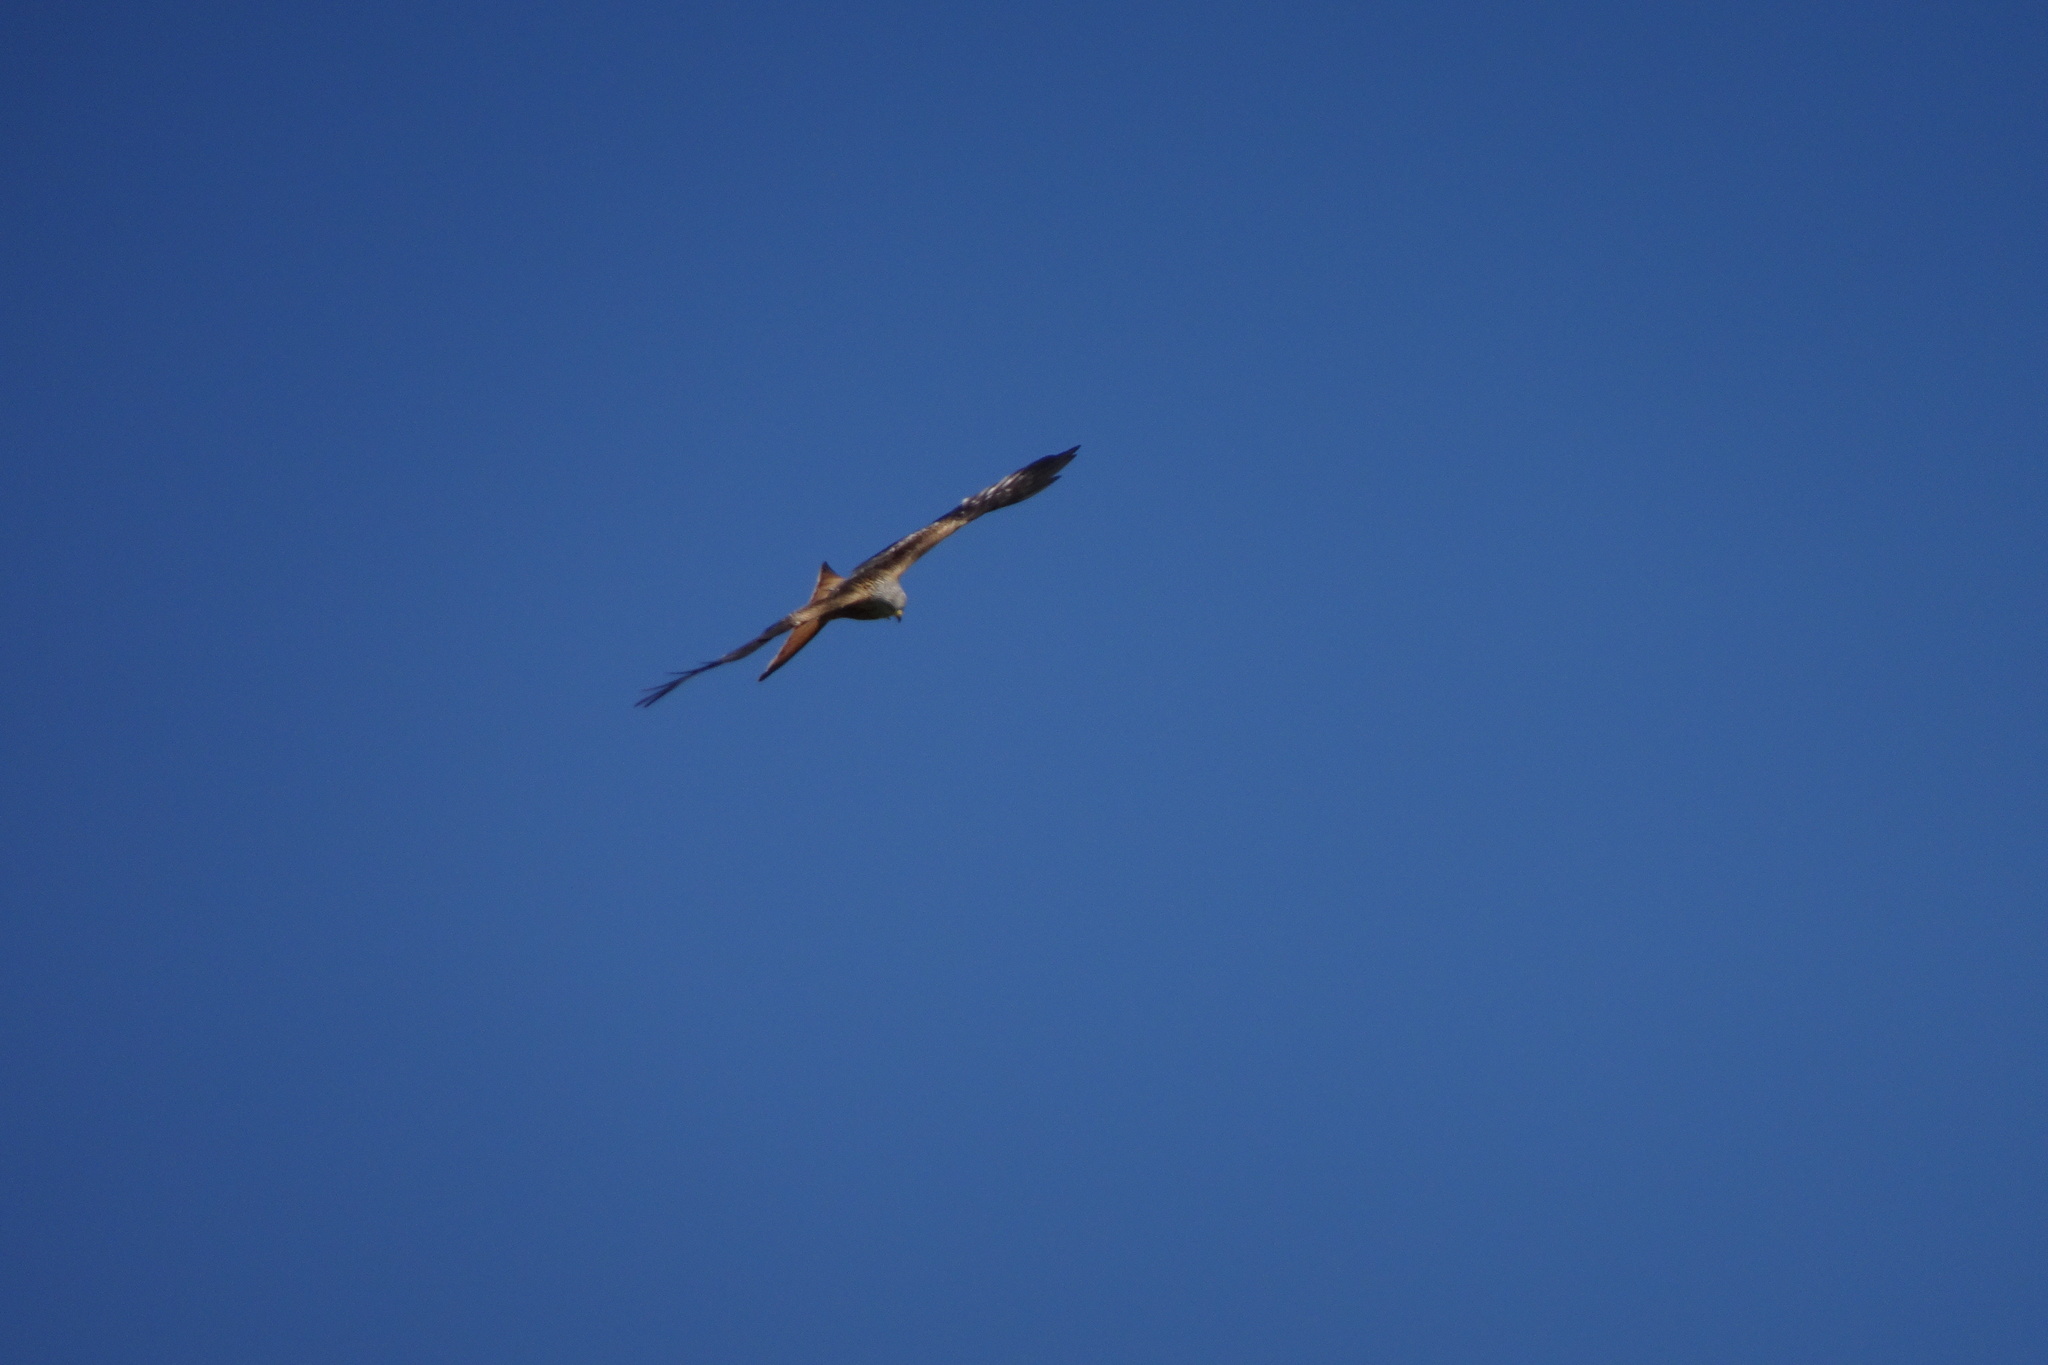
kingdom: Animalia
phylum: Chordata
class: Aves
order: Accipitriformes
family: Accipitridae
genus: Milvus
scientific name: Milvus milvus
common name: Red kite
